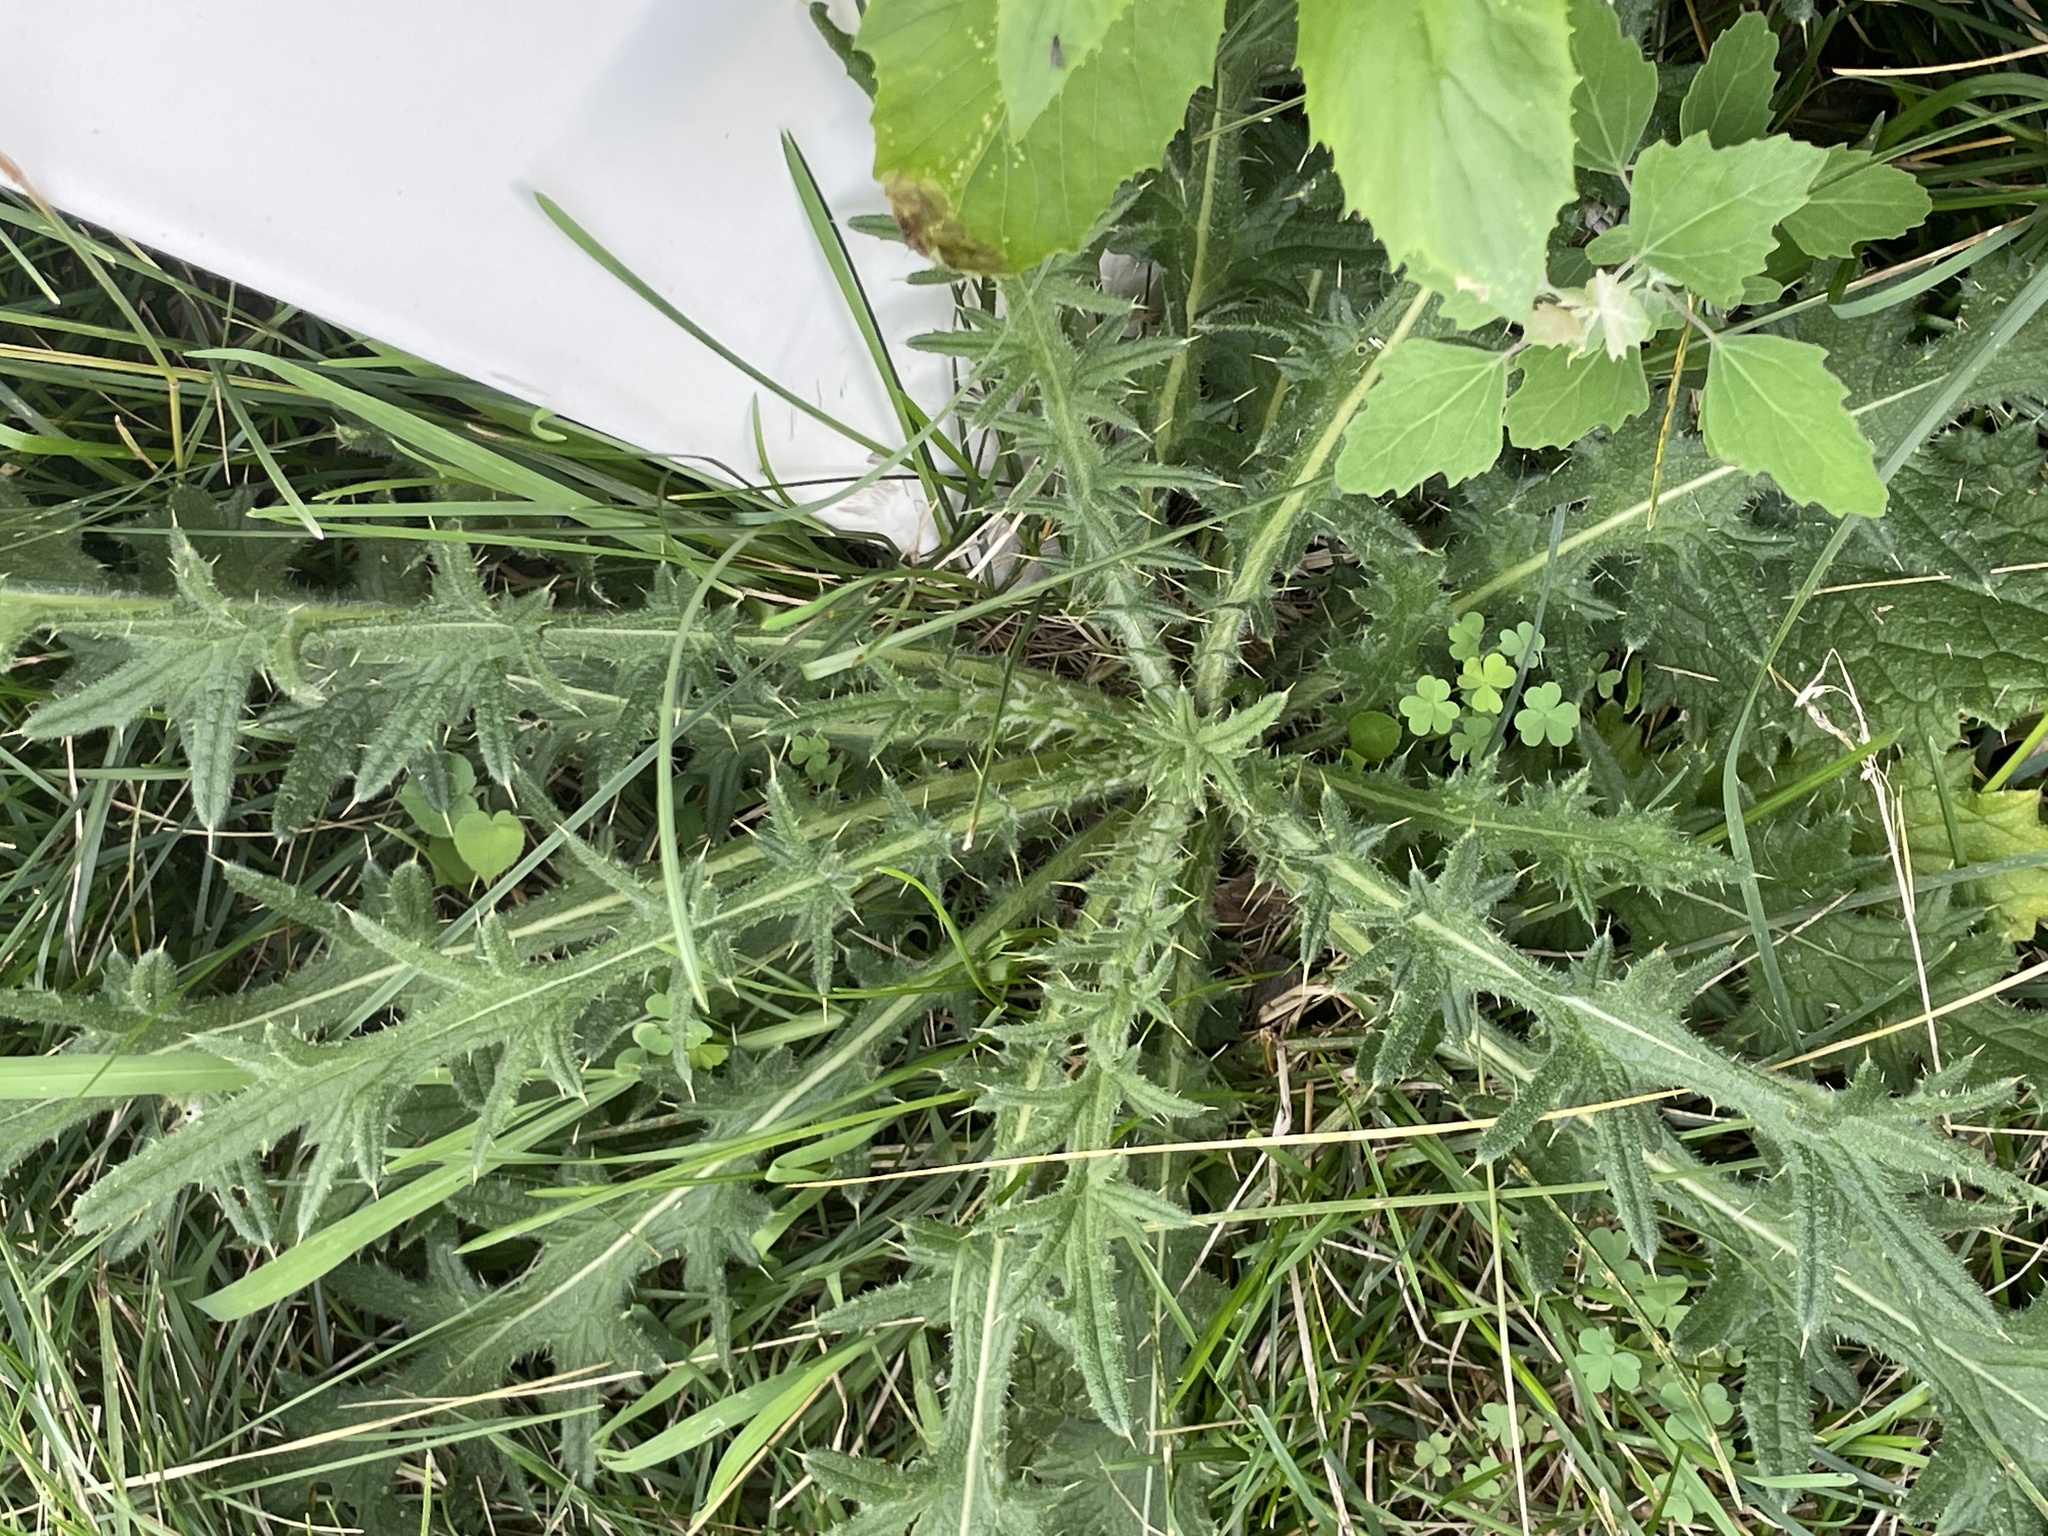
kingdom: Plantae
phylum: Tracheophyta
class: Magnoliopsida
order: Asterales
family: Asteraceae
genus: Cirsium
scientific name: Cirsium vulgare
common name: Bull thistle
